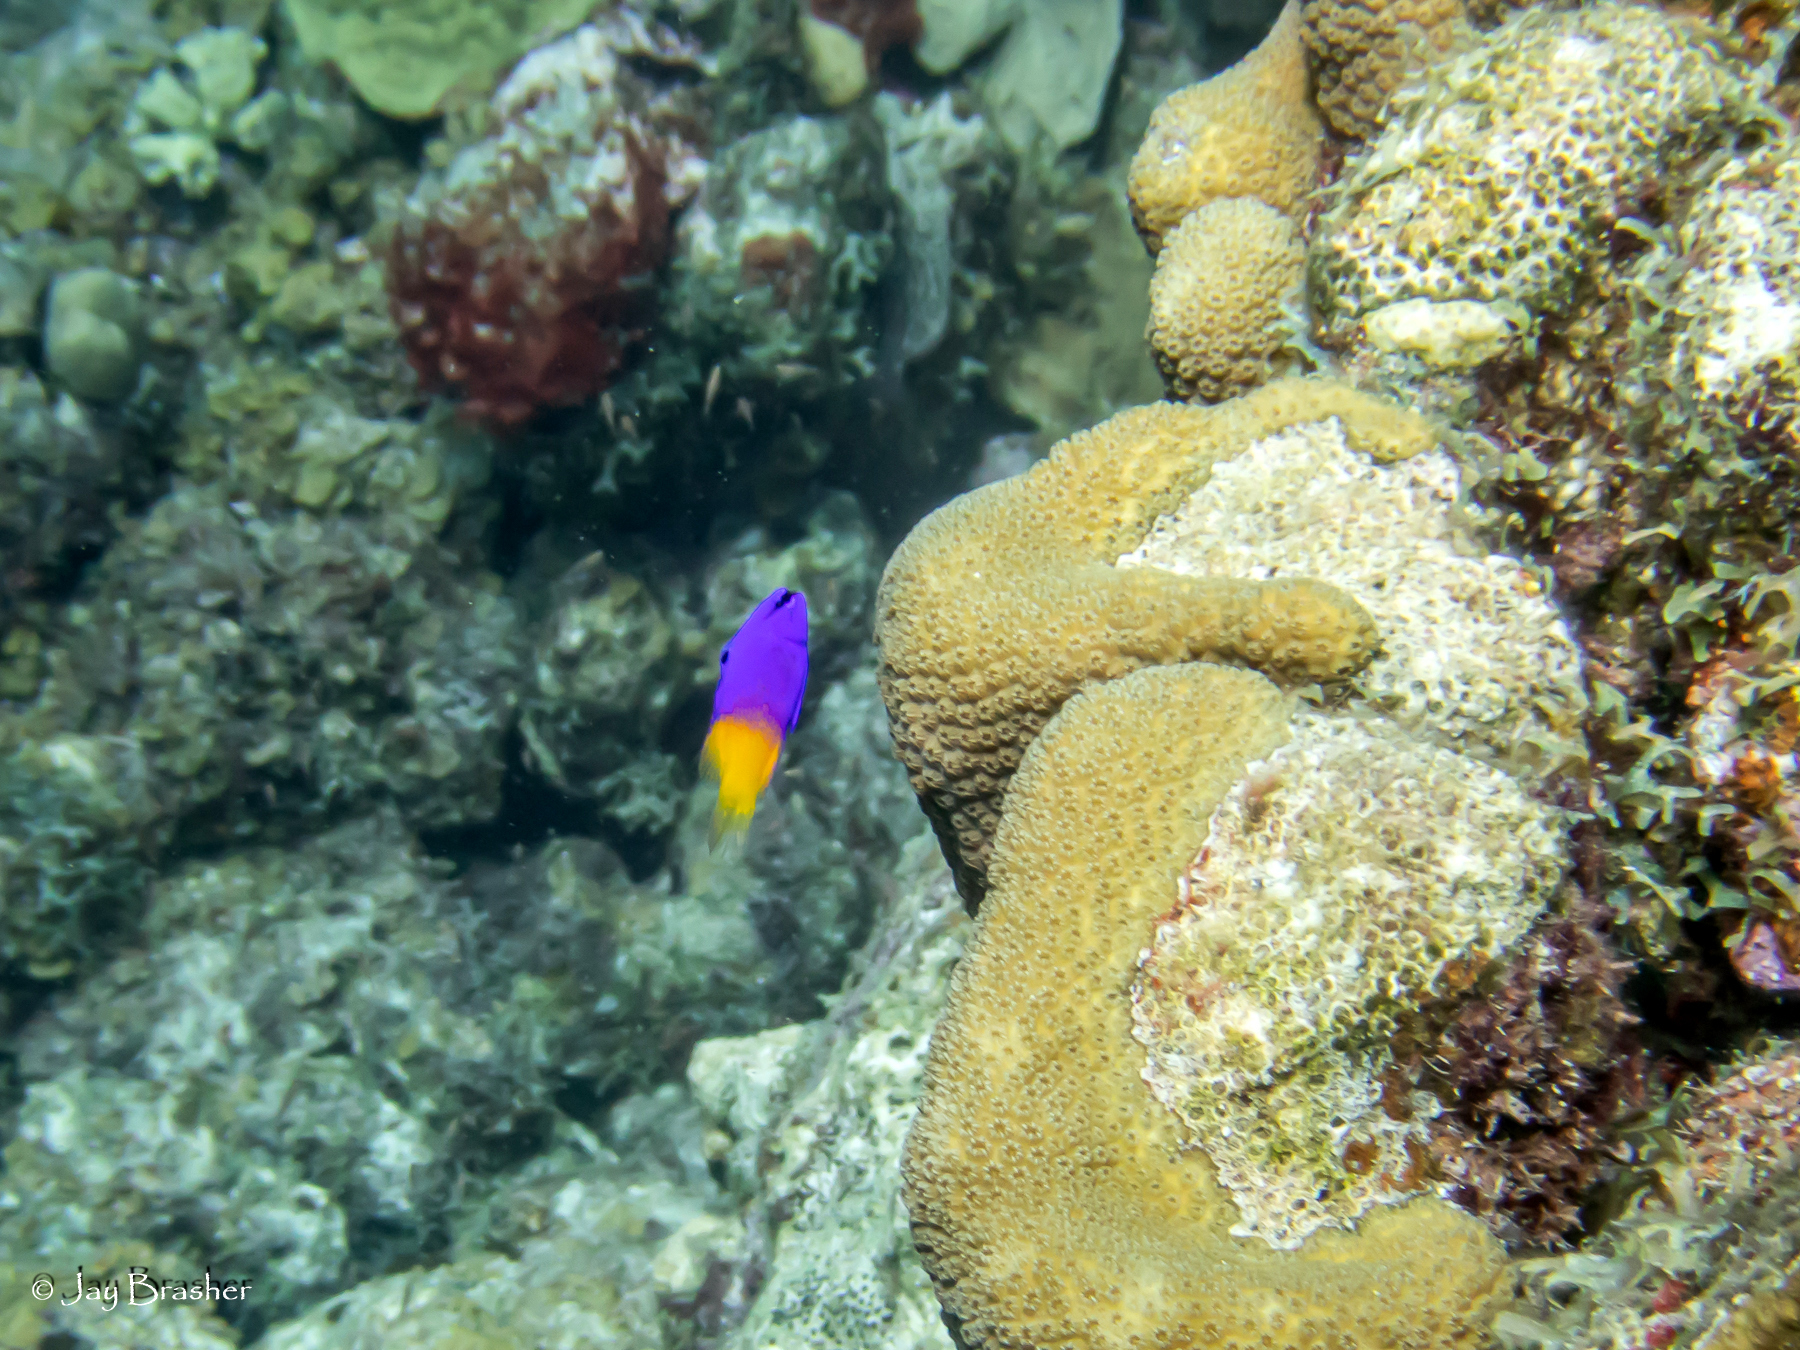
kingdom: Animalia
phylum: Chordata
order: Perciformes
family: Grammatidae
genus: Gramma
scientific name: Gramma loreto
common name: Fairy basslet
